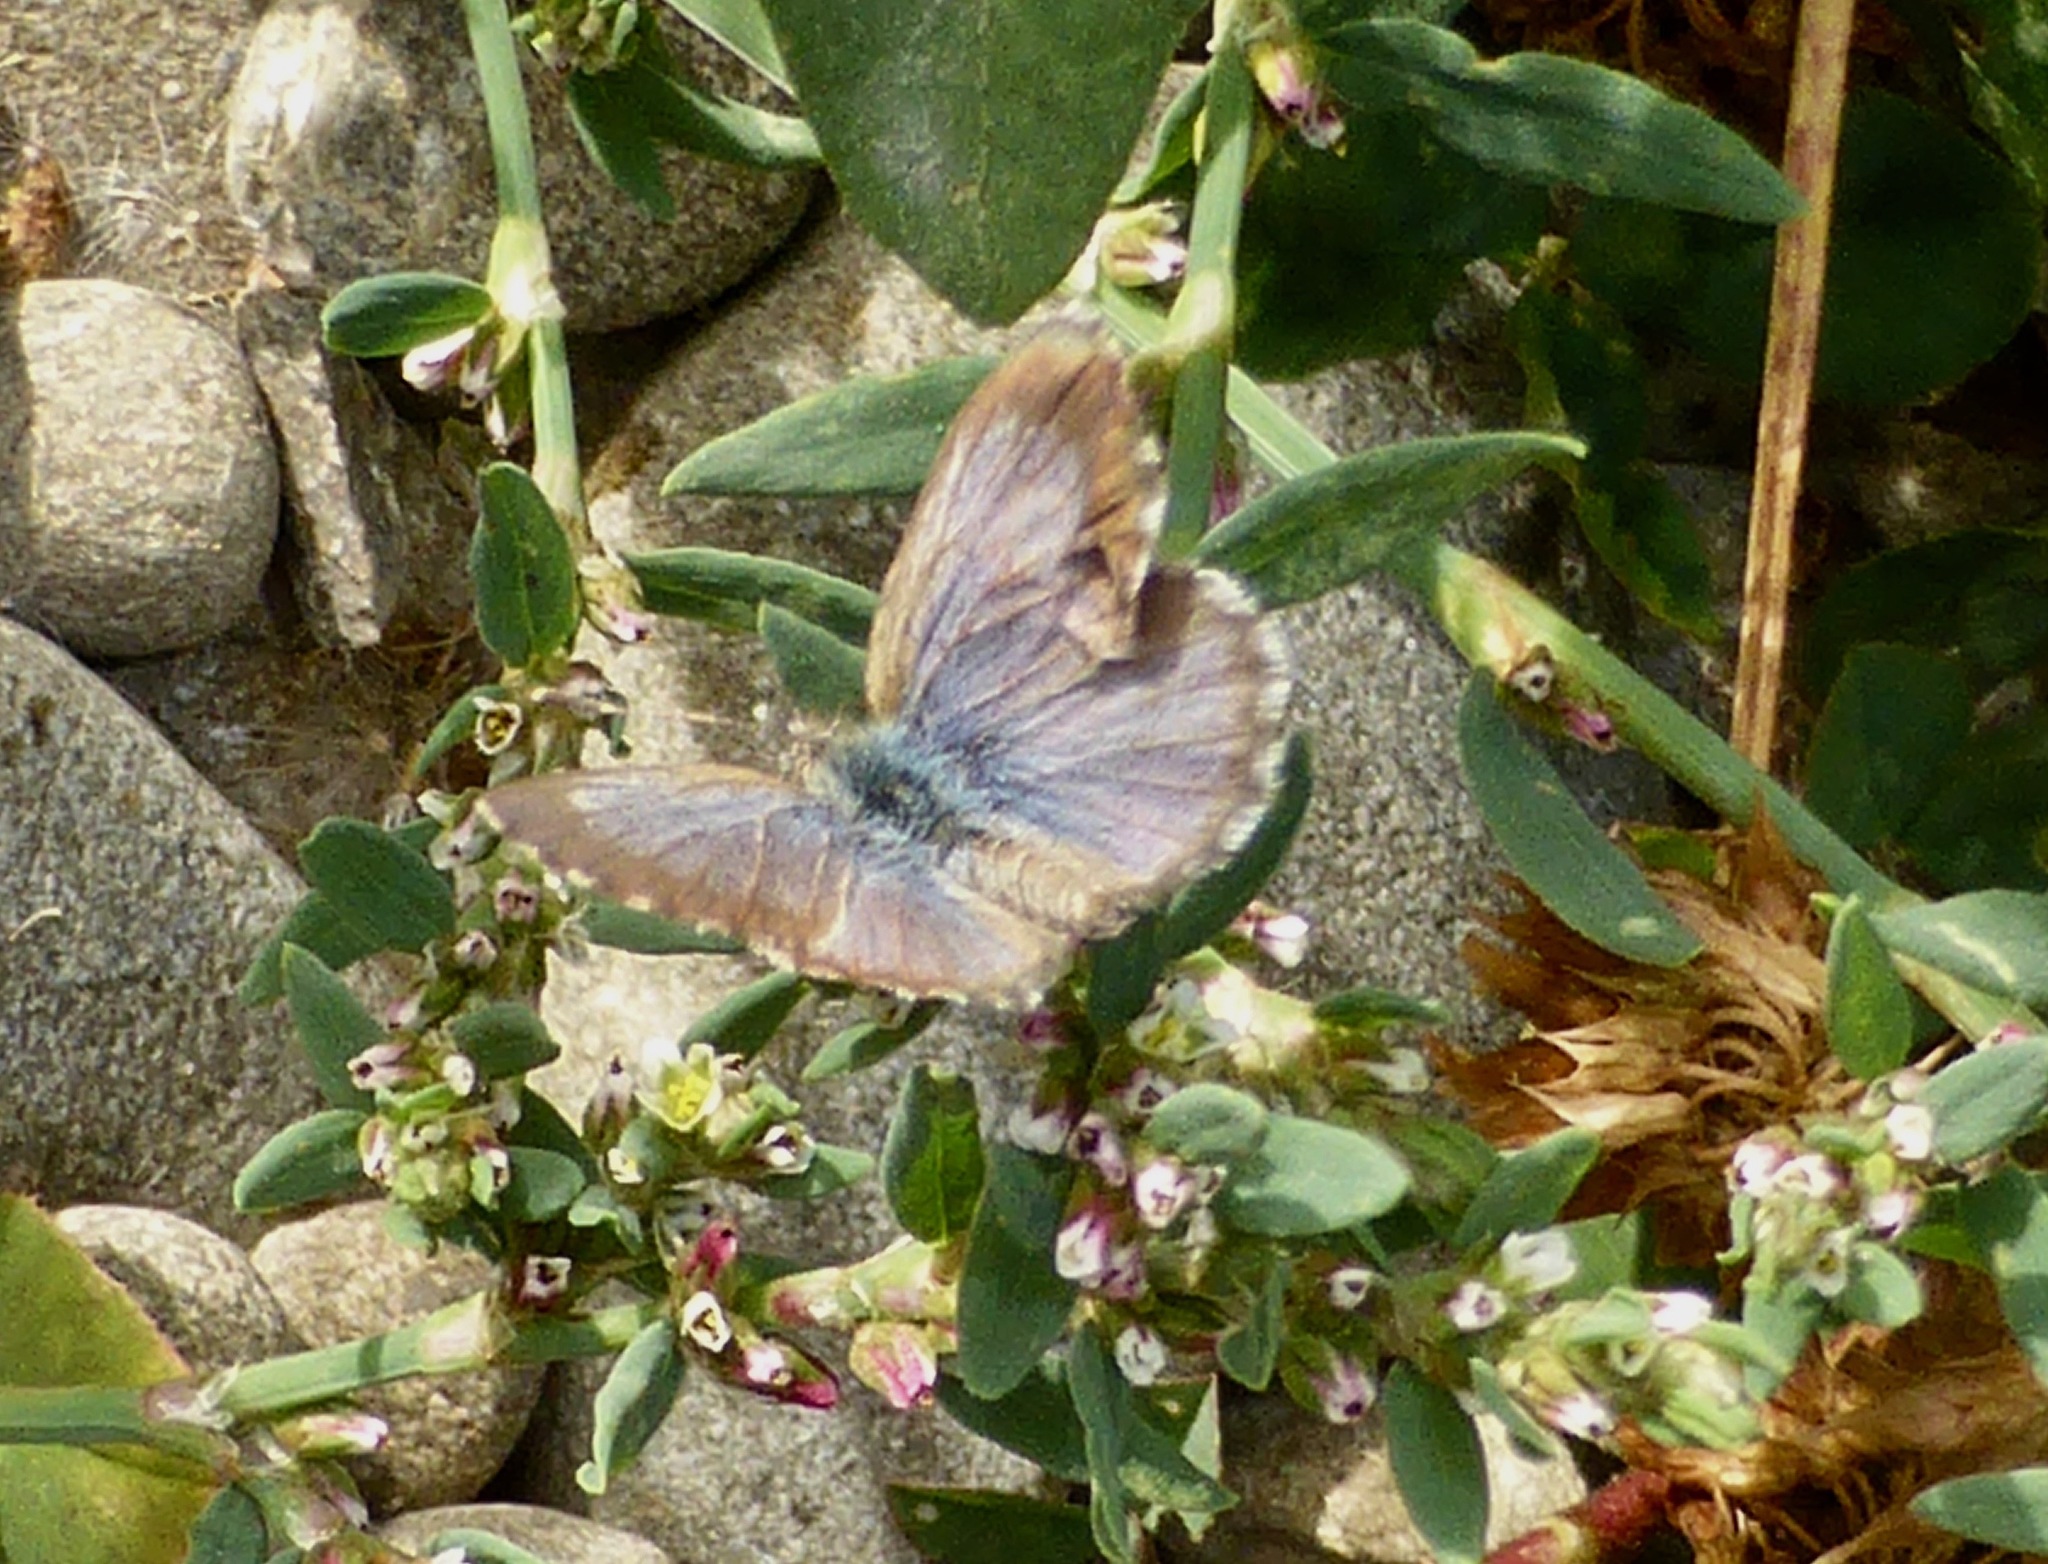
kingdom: Animalia
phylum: Arthropoda
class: Insecta
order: Lepidoptera
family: Lycaenidae
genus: Zizina
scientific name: Zizina oxleyi
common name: Southern blue
